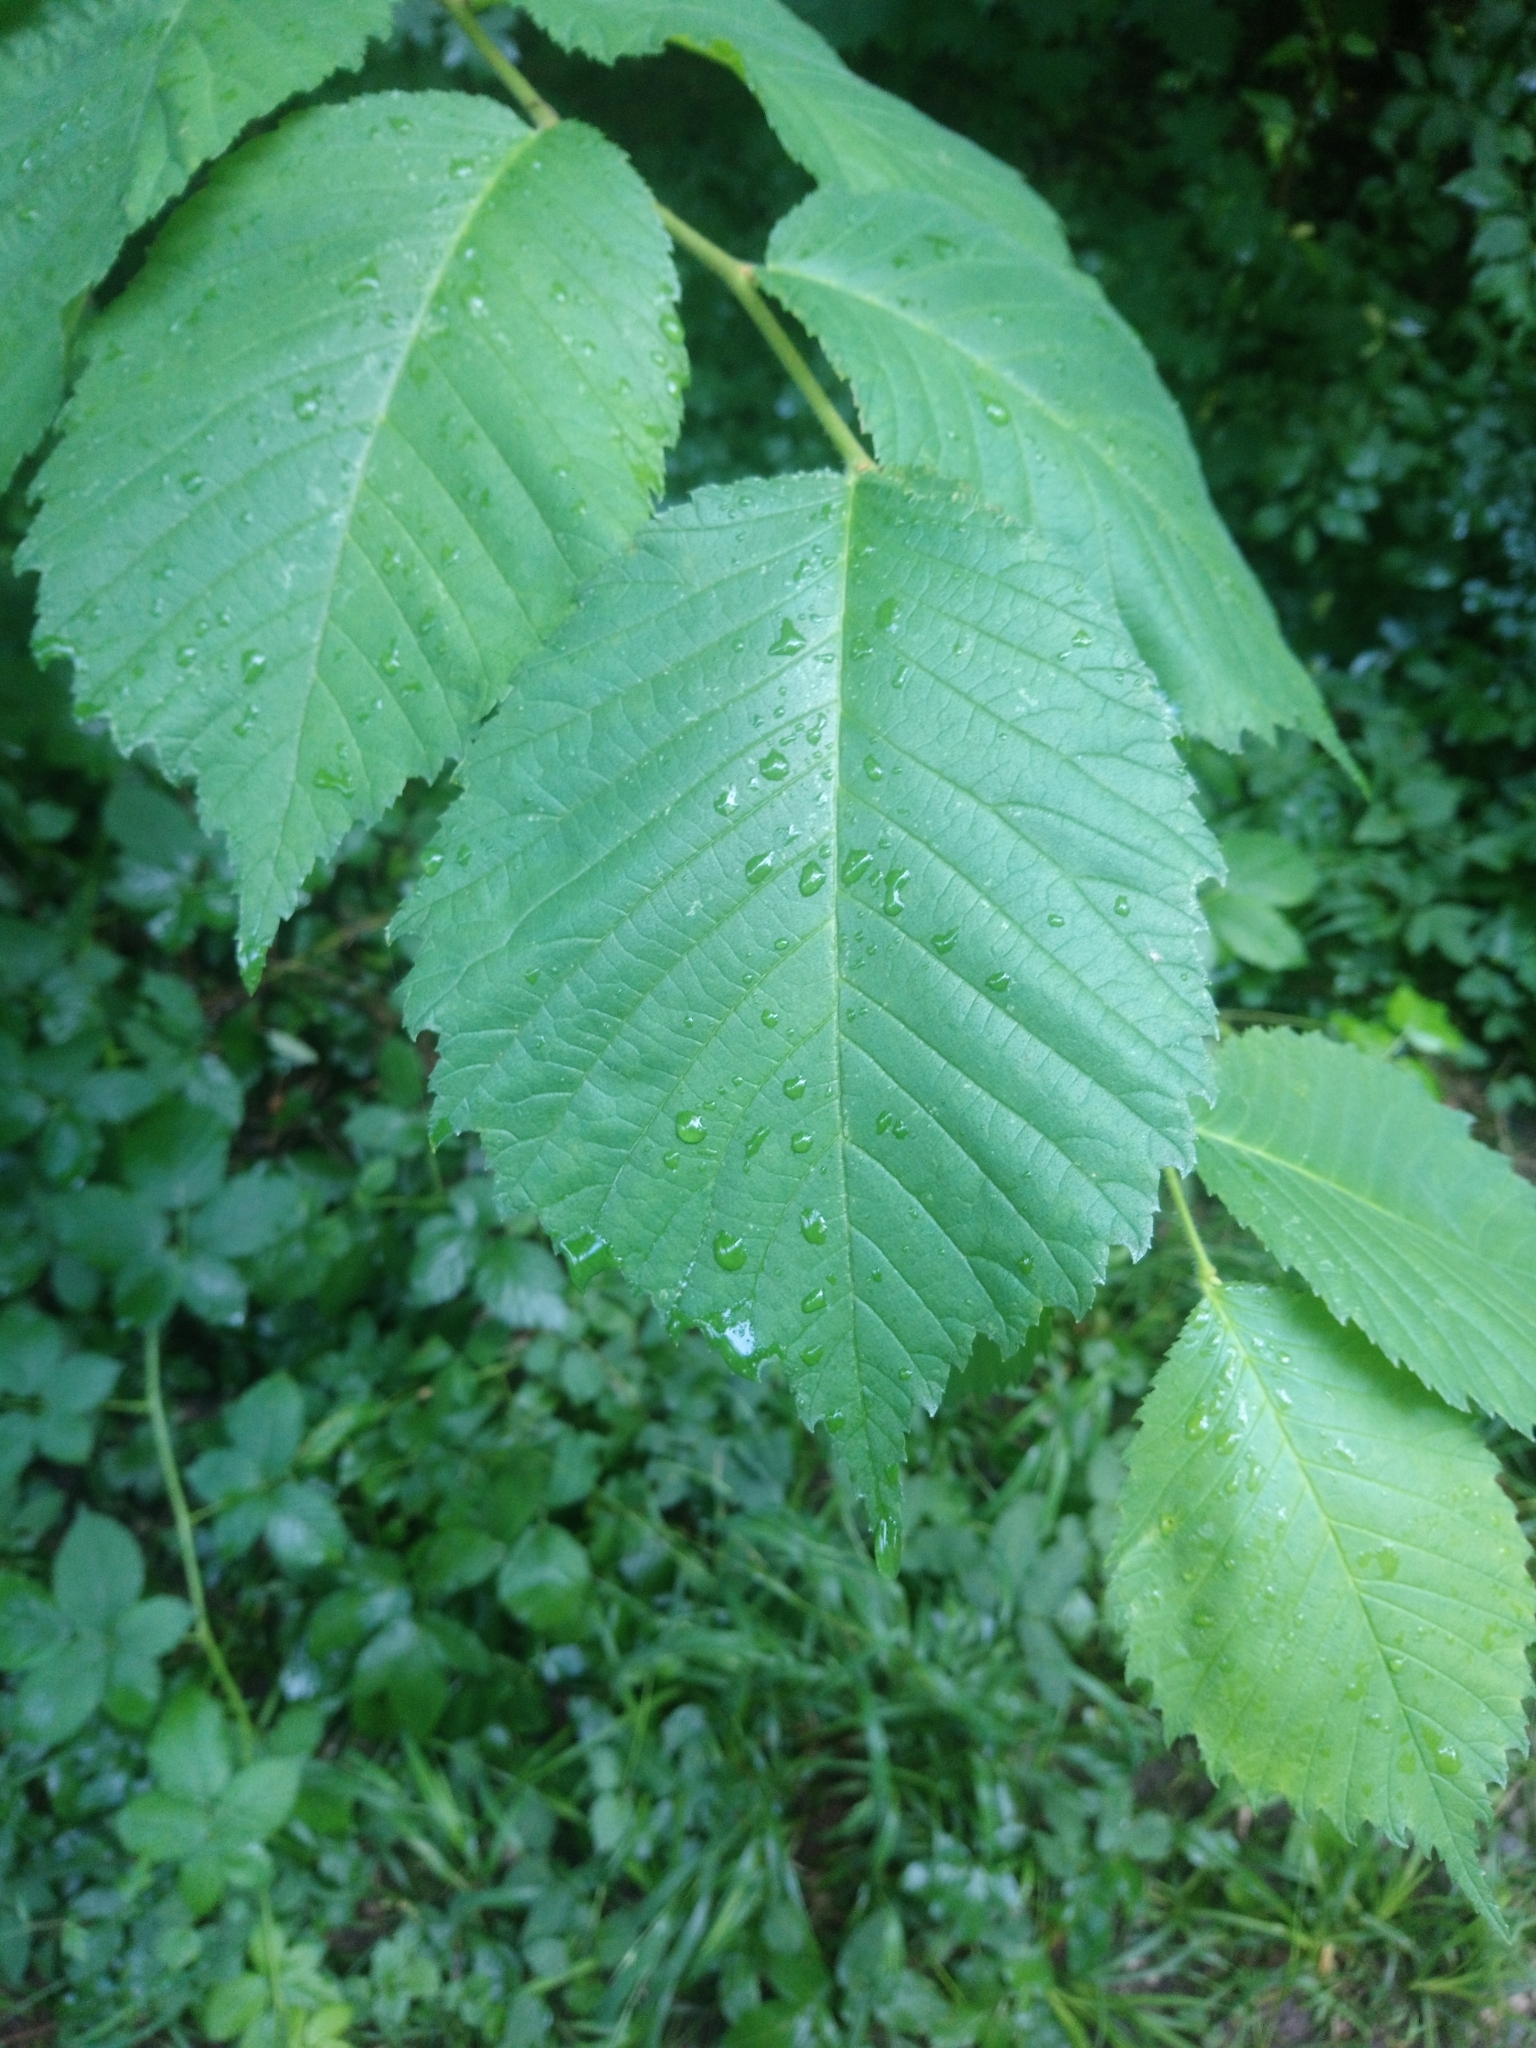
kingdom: Plantae
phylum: Tracheophyta
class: Magnoliopsida
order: Rosales
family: Ulmaceae
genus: Ulmus
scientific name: Ulmus glabra
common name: Wych elm
